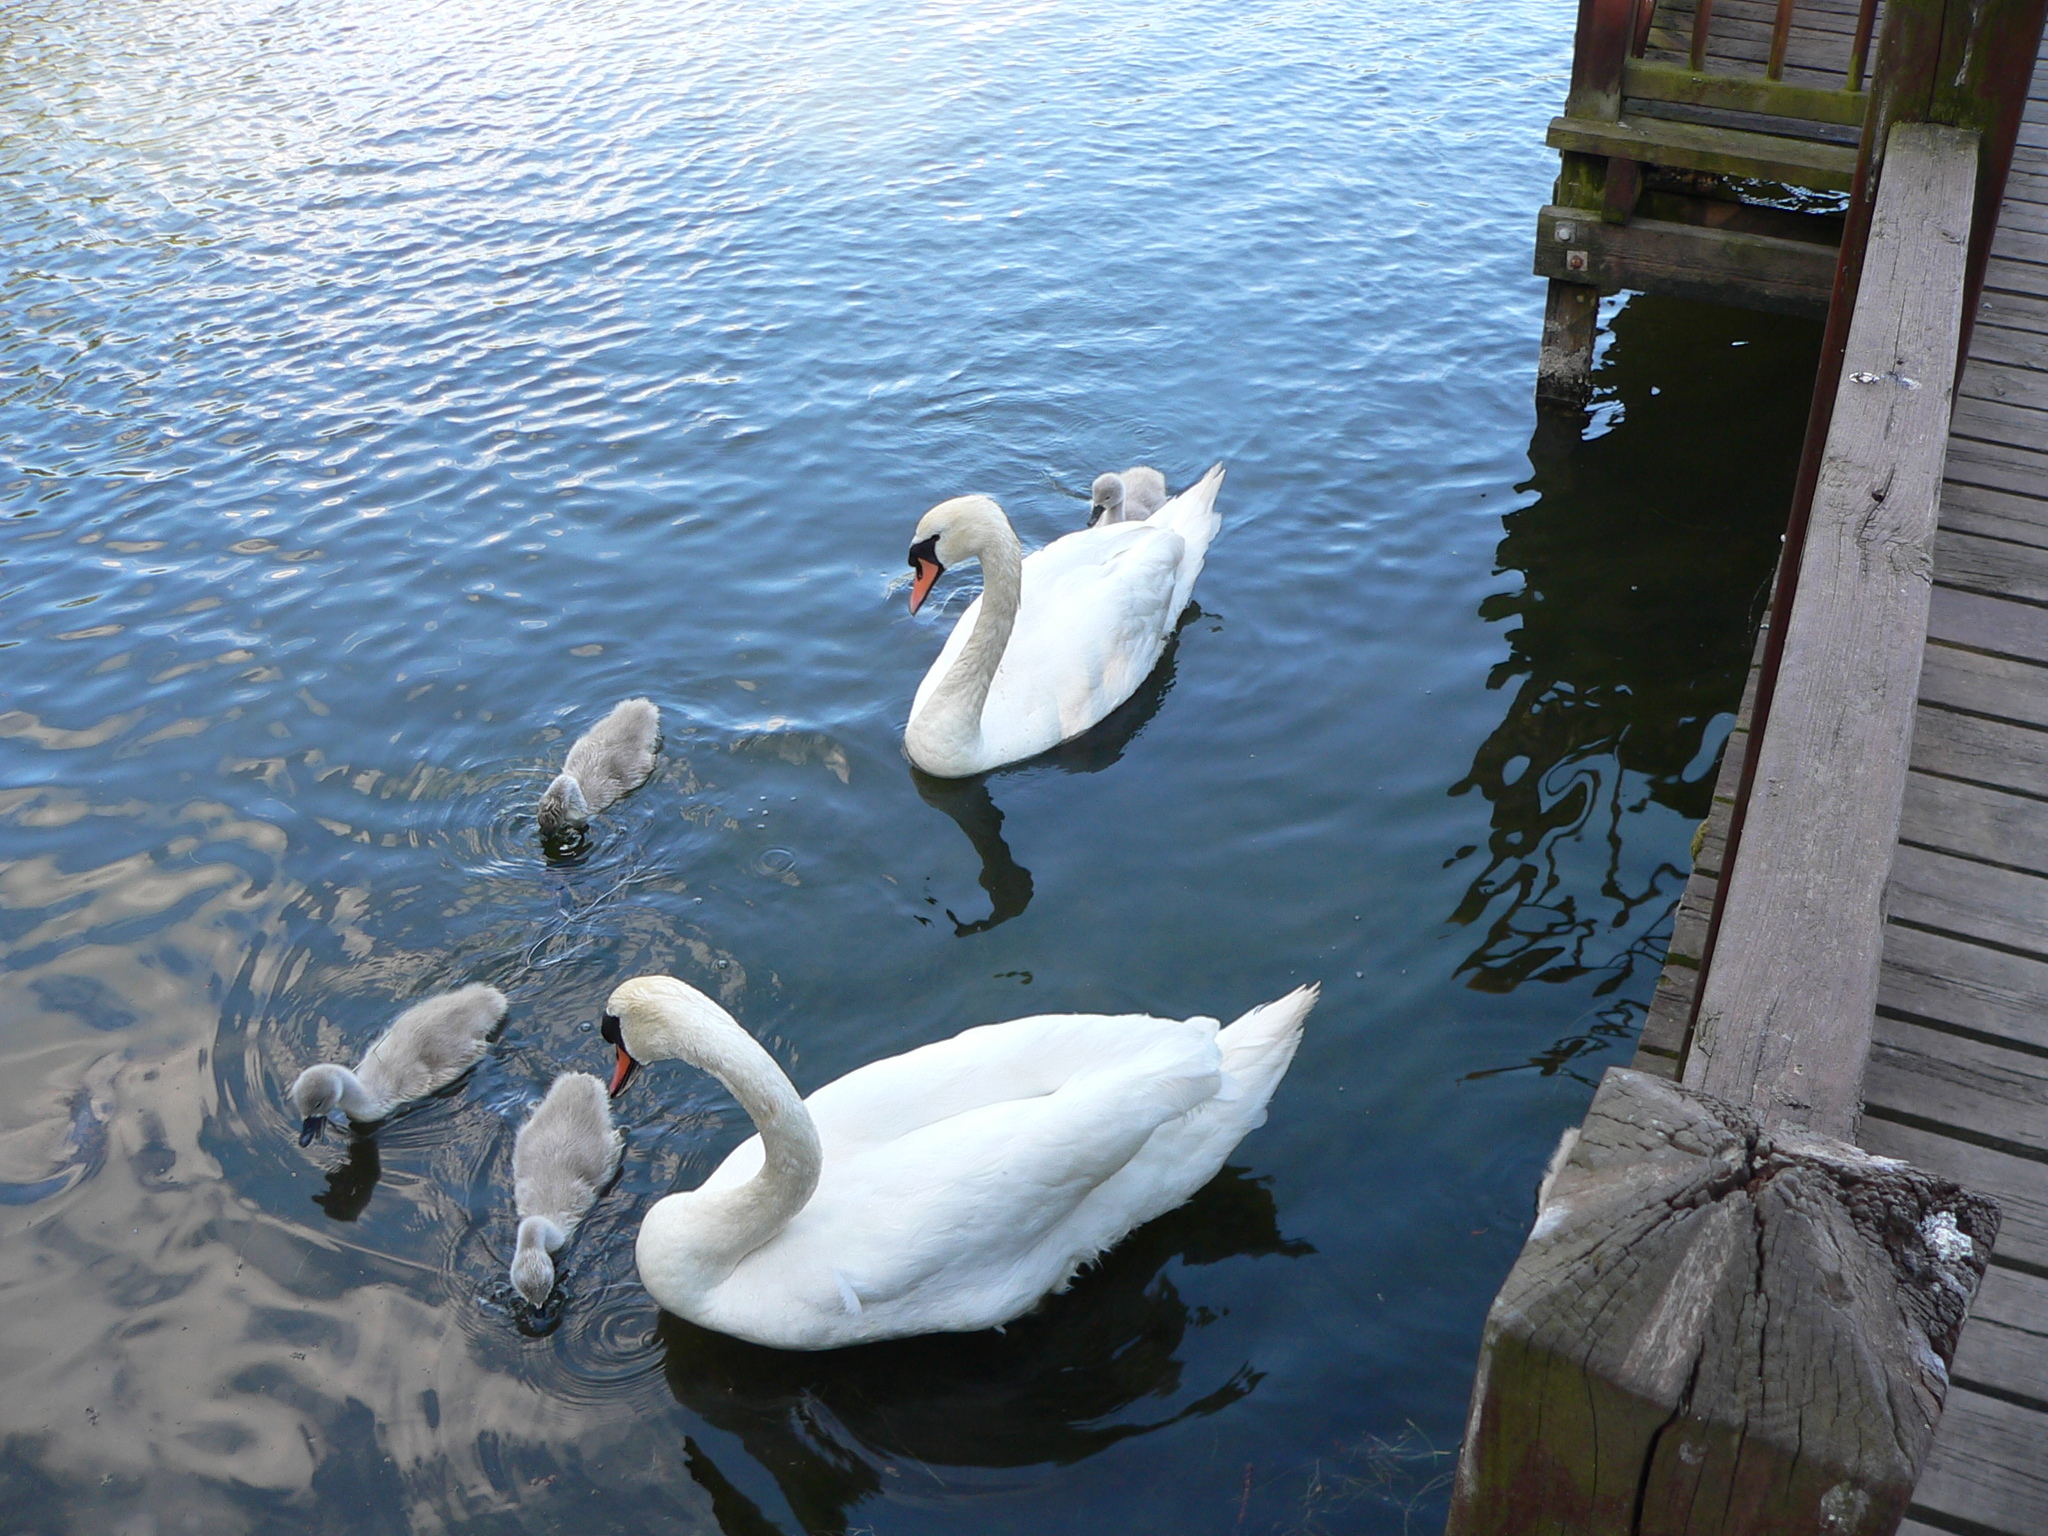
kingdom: Animalia
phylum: Chordata
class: Aves
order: Anseriformes
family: Anatidae
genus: Cygnus
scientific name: Cygnus olor
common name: Mute swan
